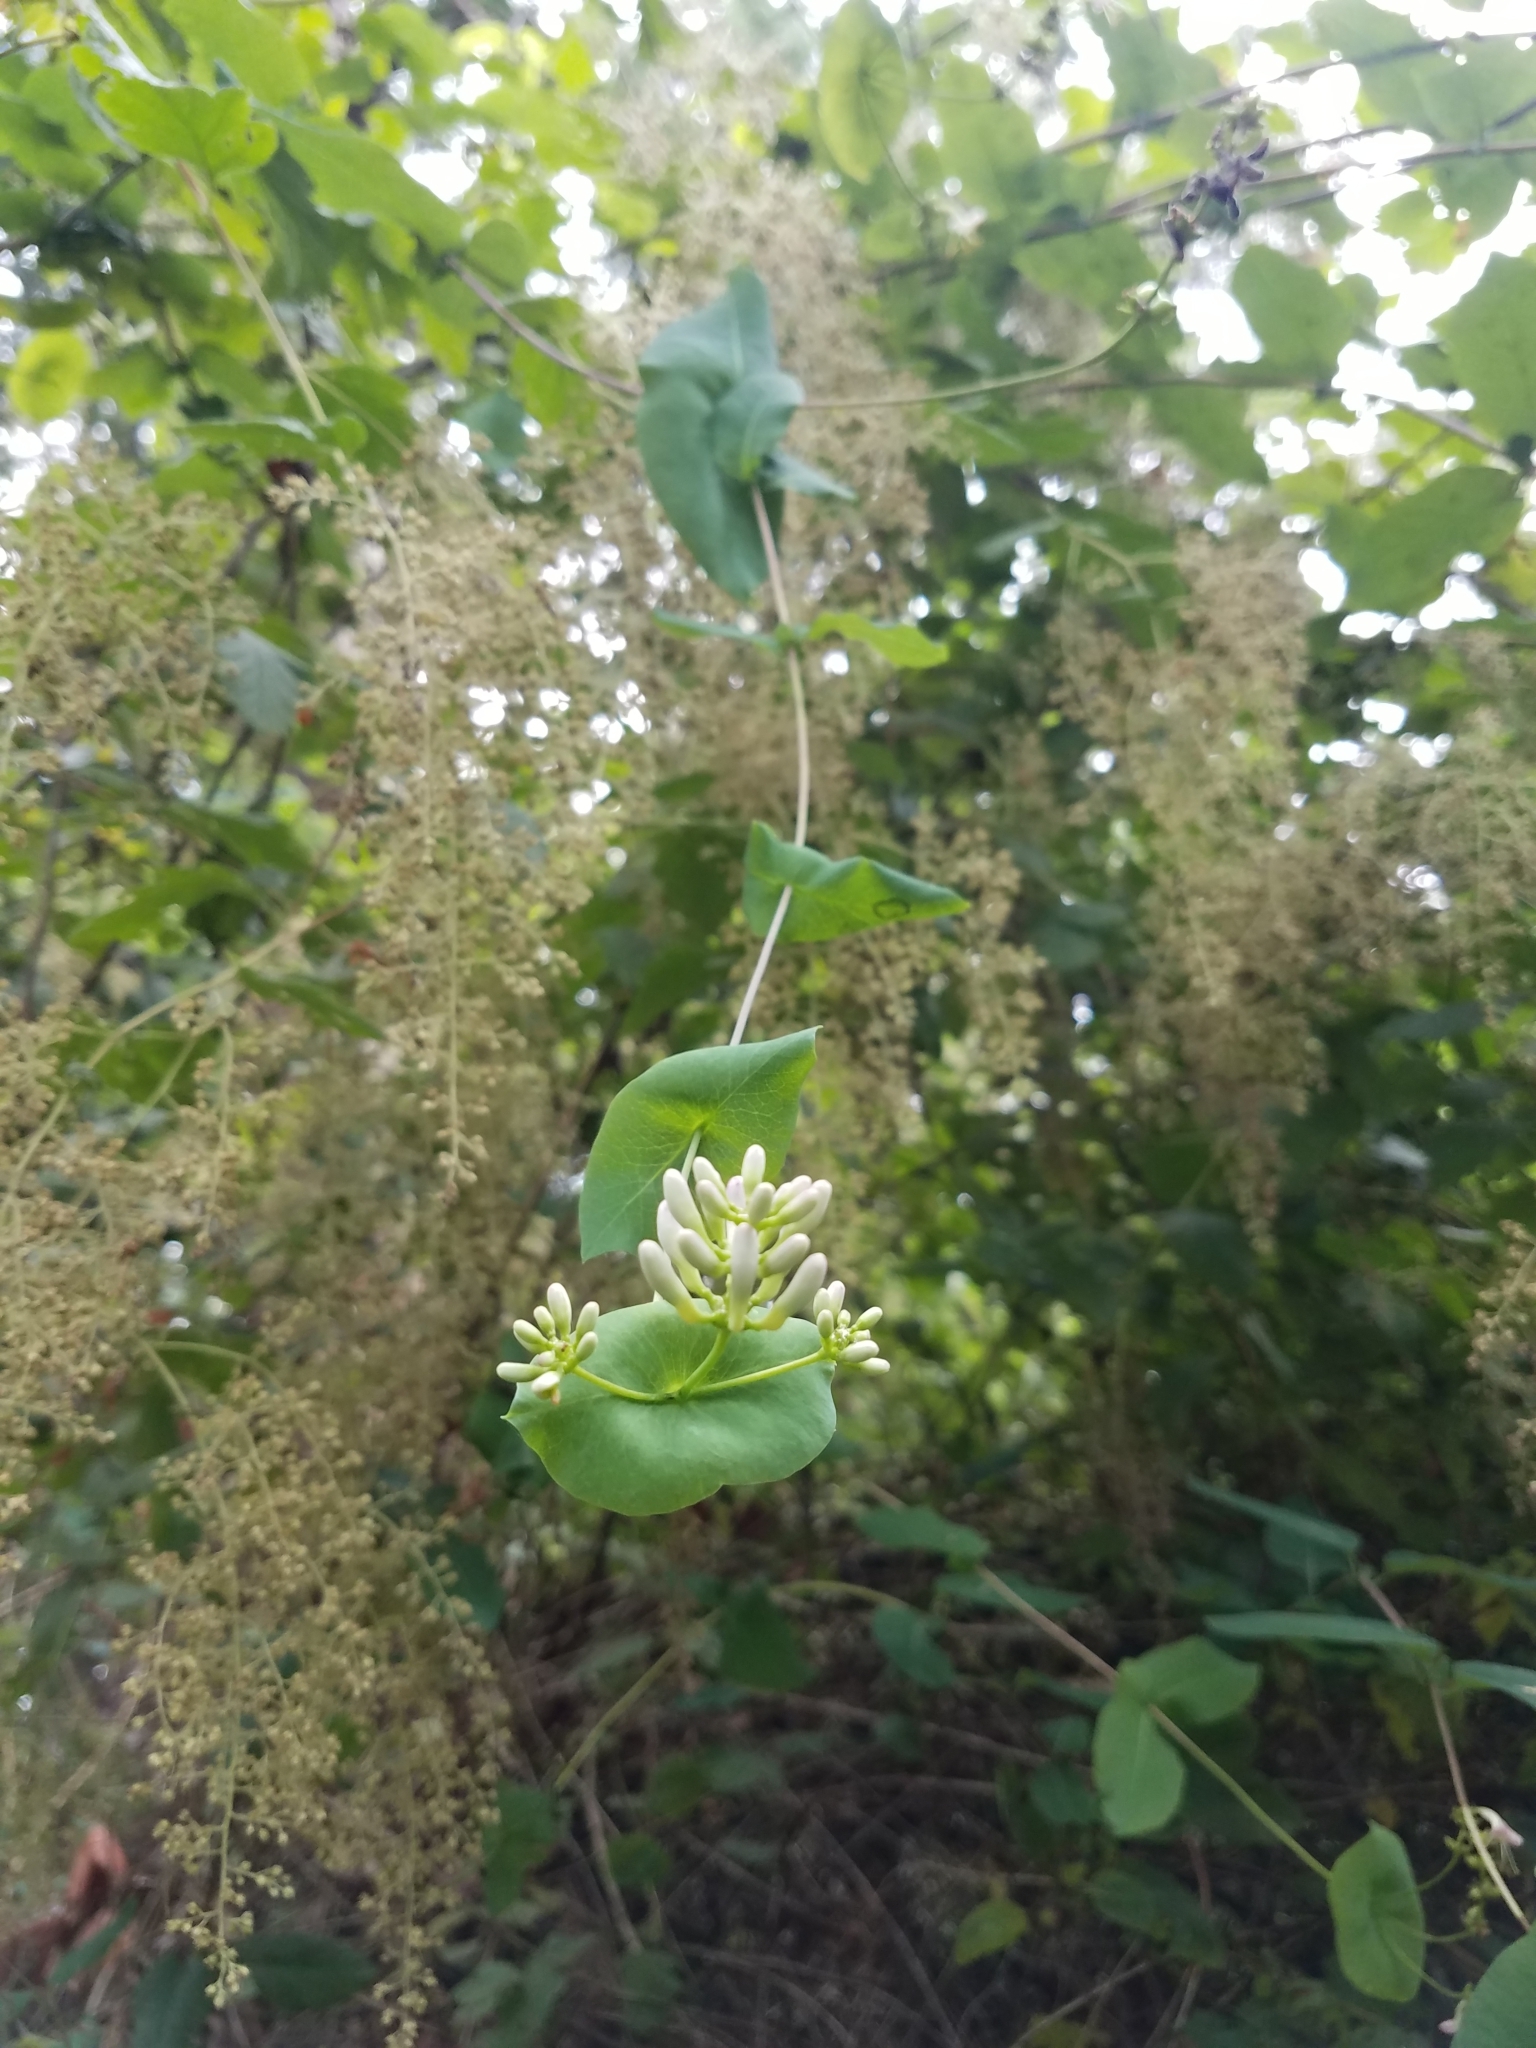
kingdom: Plantae
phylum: Tracheophyta
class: Magnoliopsida
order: Dipsacales
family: Caprifoliaceae
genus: Lonicera
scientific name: Lonicera hispidula
